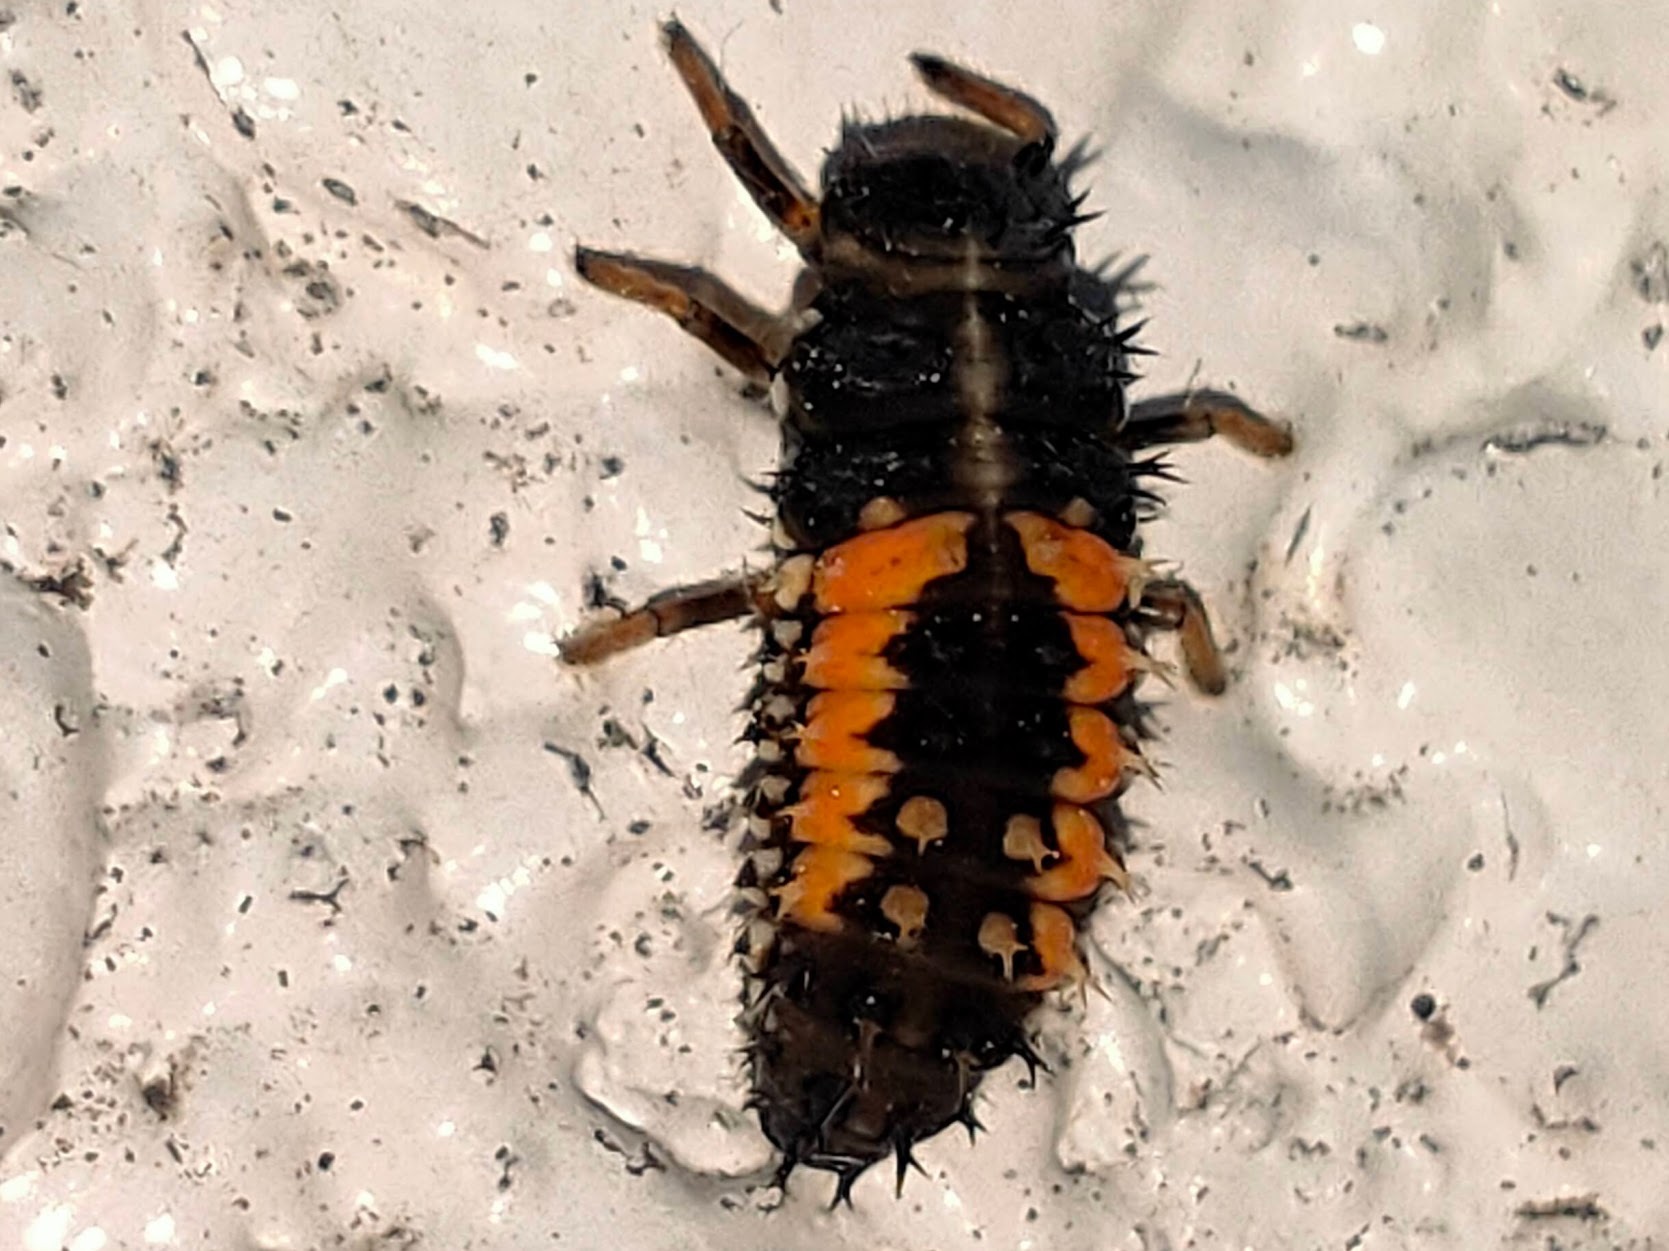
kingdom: Animalia
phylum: Arthropoda
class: Insecta
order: Coleoptera
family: Coccinellidae
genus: Harmonia
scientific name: Harmonia axyridis
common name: Harlequin ladybird
